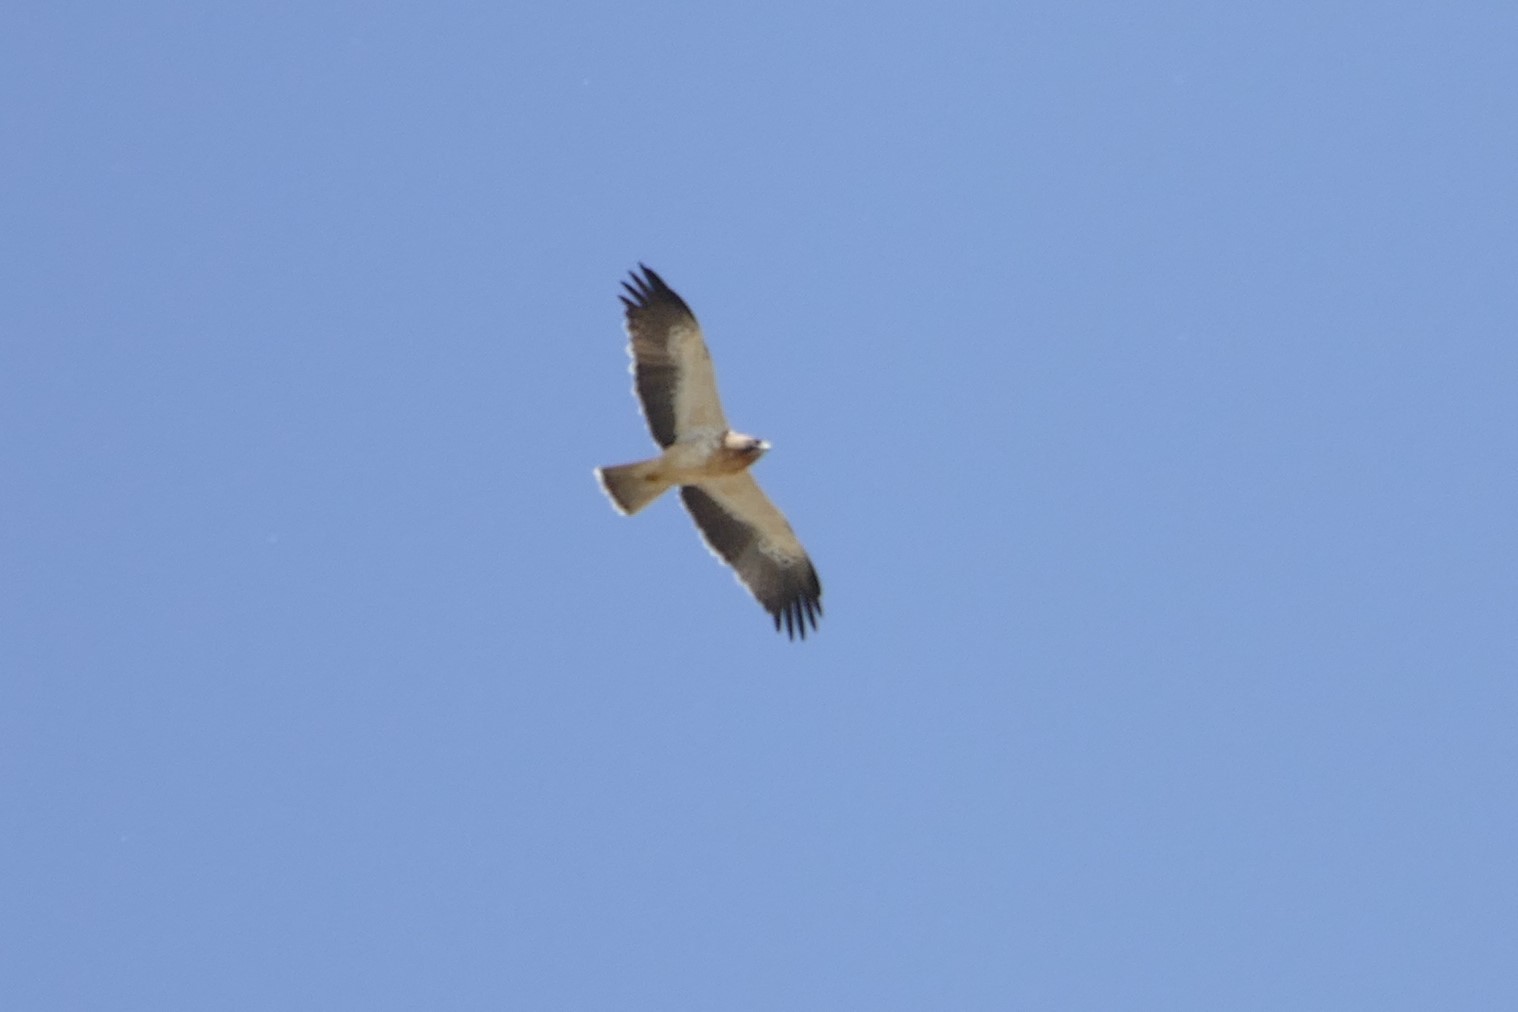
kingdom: Animalia
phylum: Chordata
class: Aves
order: Accipitriformes
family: Accipitridae
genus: Hieraaetus
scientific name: Hieraaetus pennatus
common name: Booted eagle
